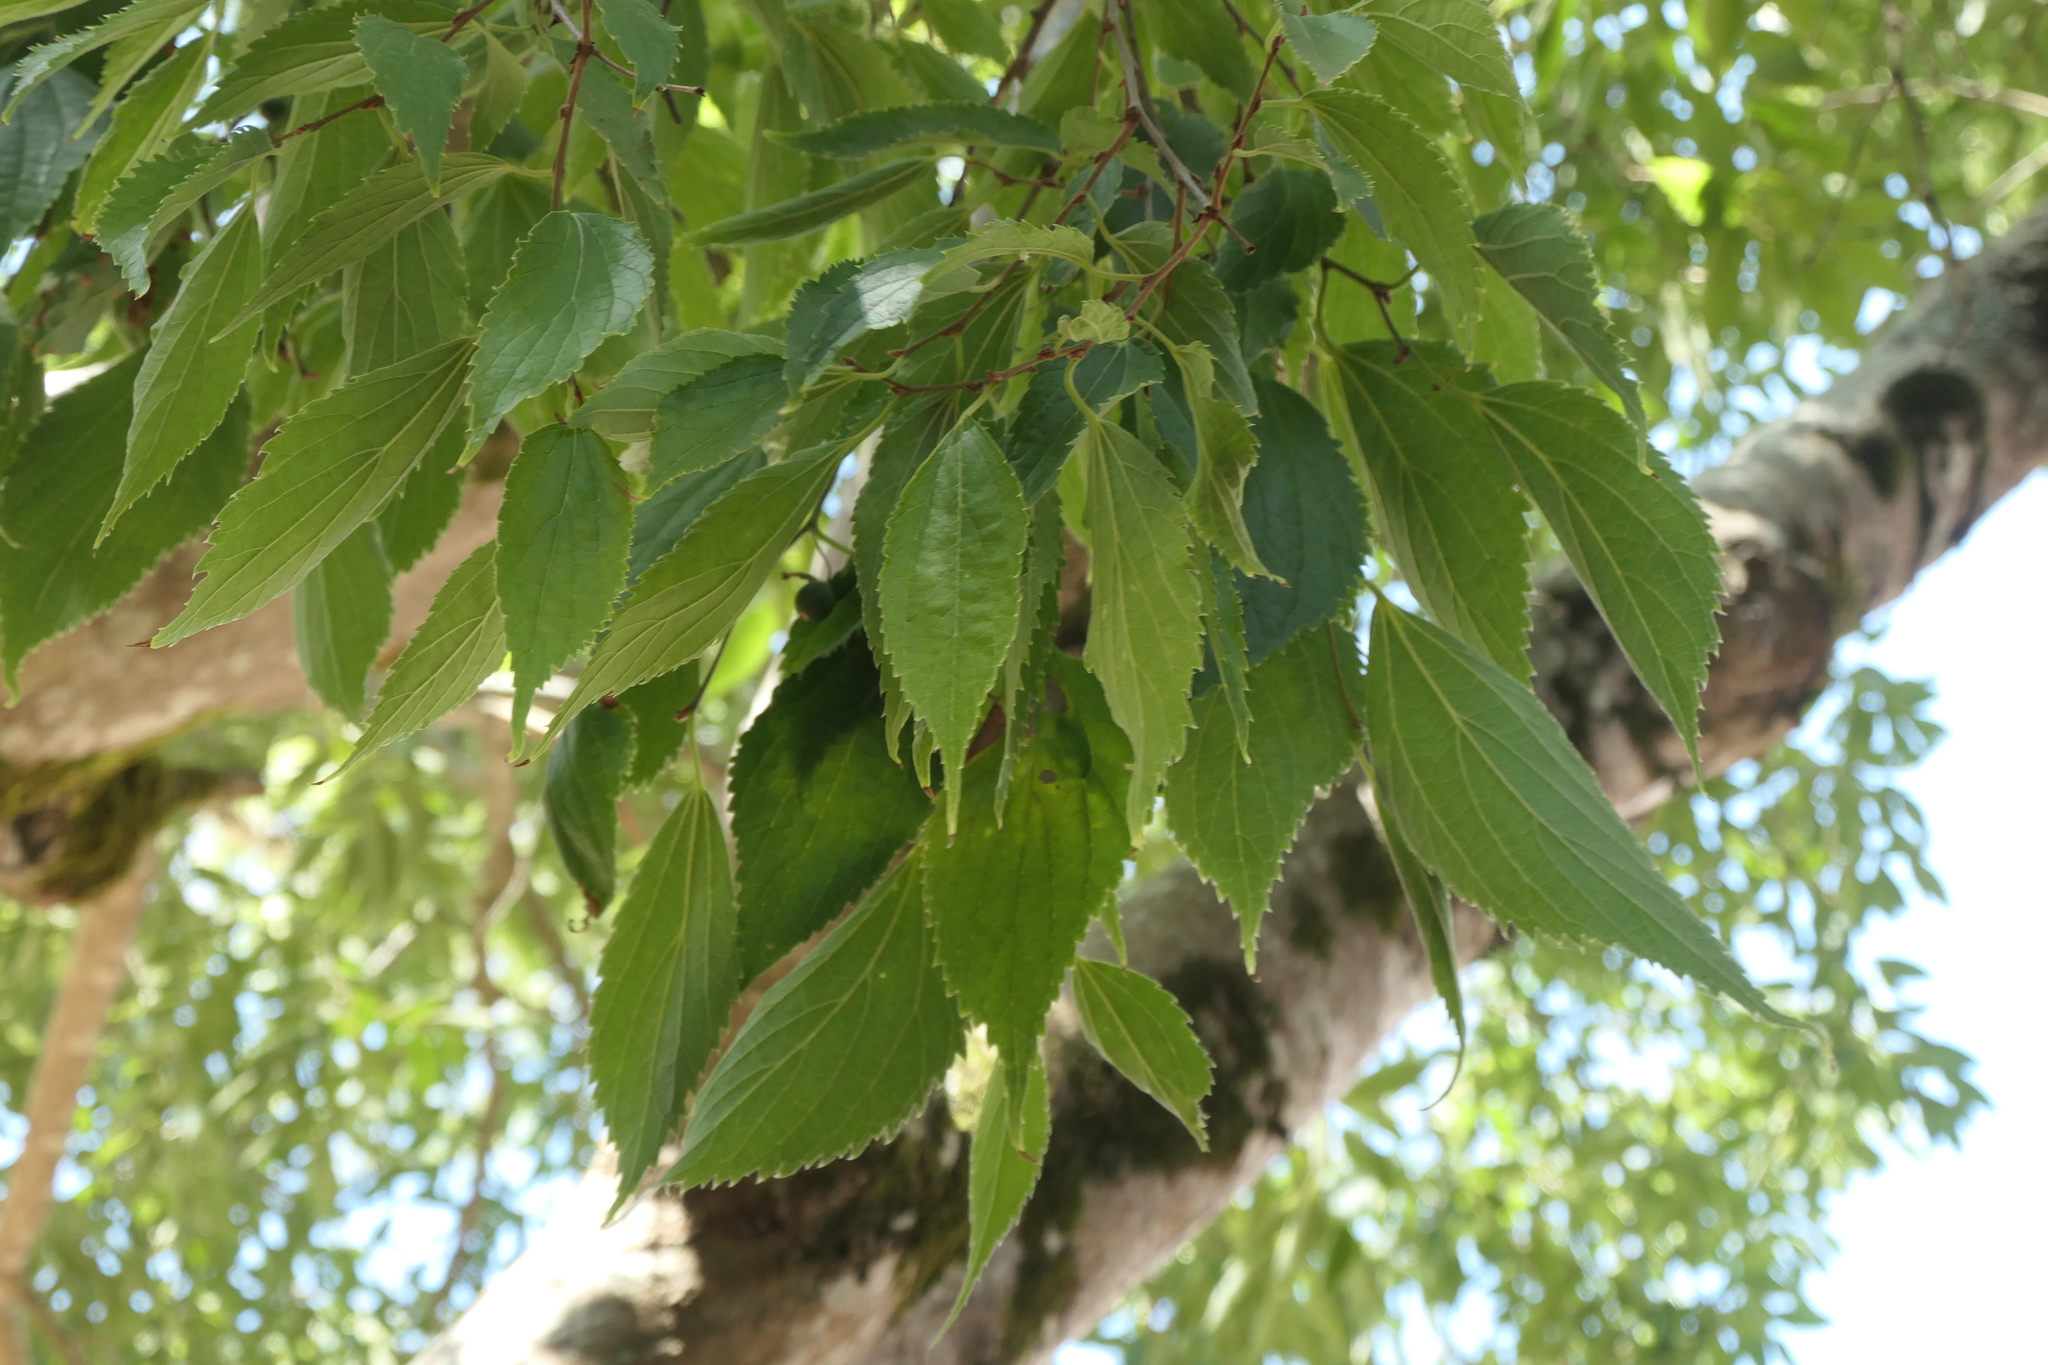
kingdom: Plantae
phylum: Tracheophyta
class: Magnoliopsida
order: Rosales
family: Cannabaceae
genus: Celtis
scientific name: Celtis australis
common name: European hackberry
